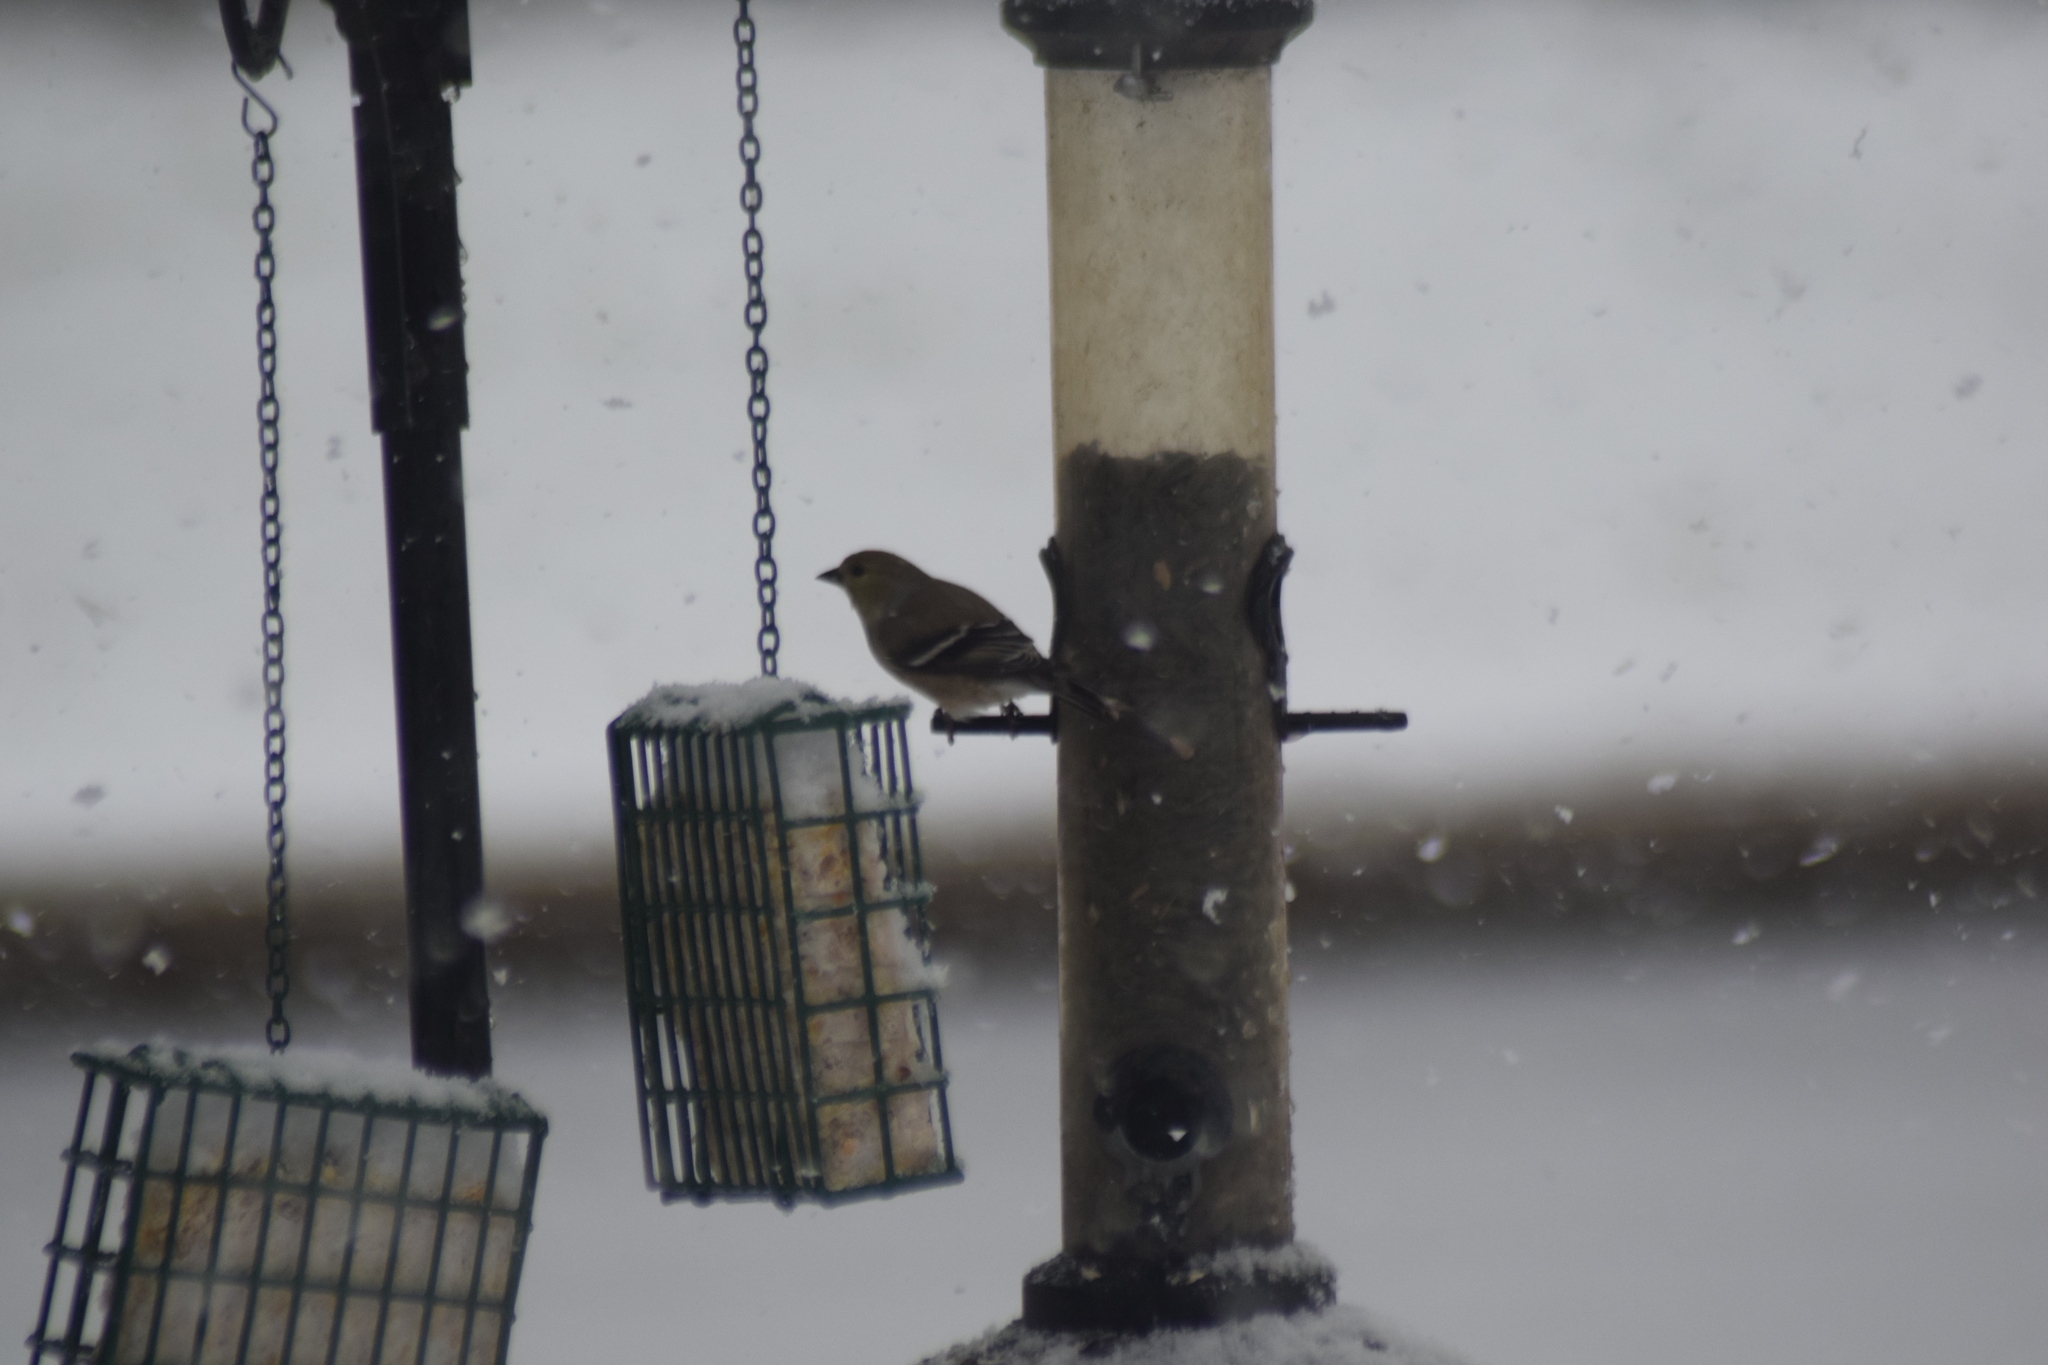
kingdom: Animalia
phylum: Chordata
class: Aves
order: Passeriformes
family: Fringillidae
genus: Spinus
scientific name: Spinus tristis
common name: American goldfinch
